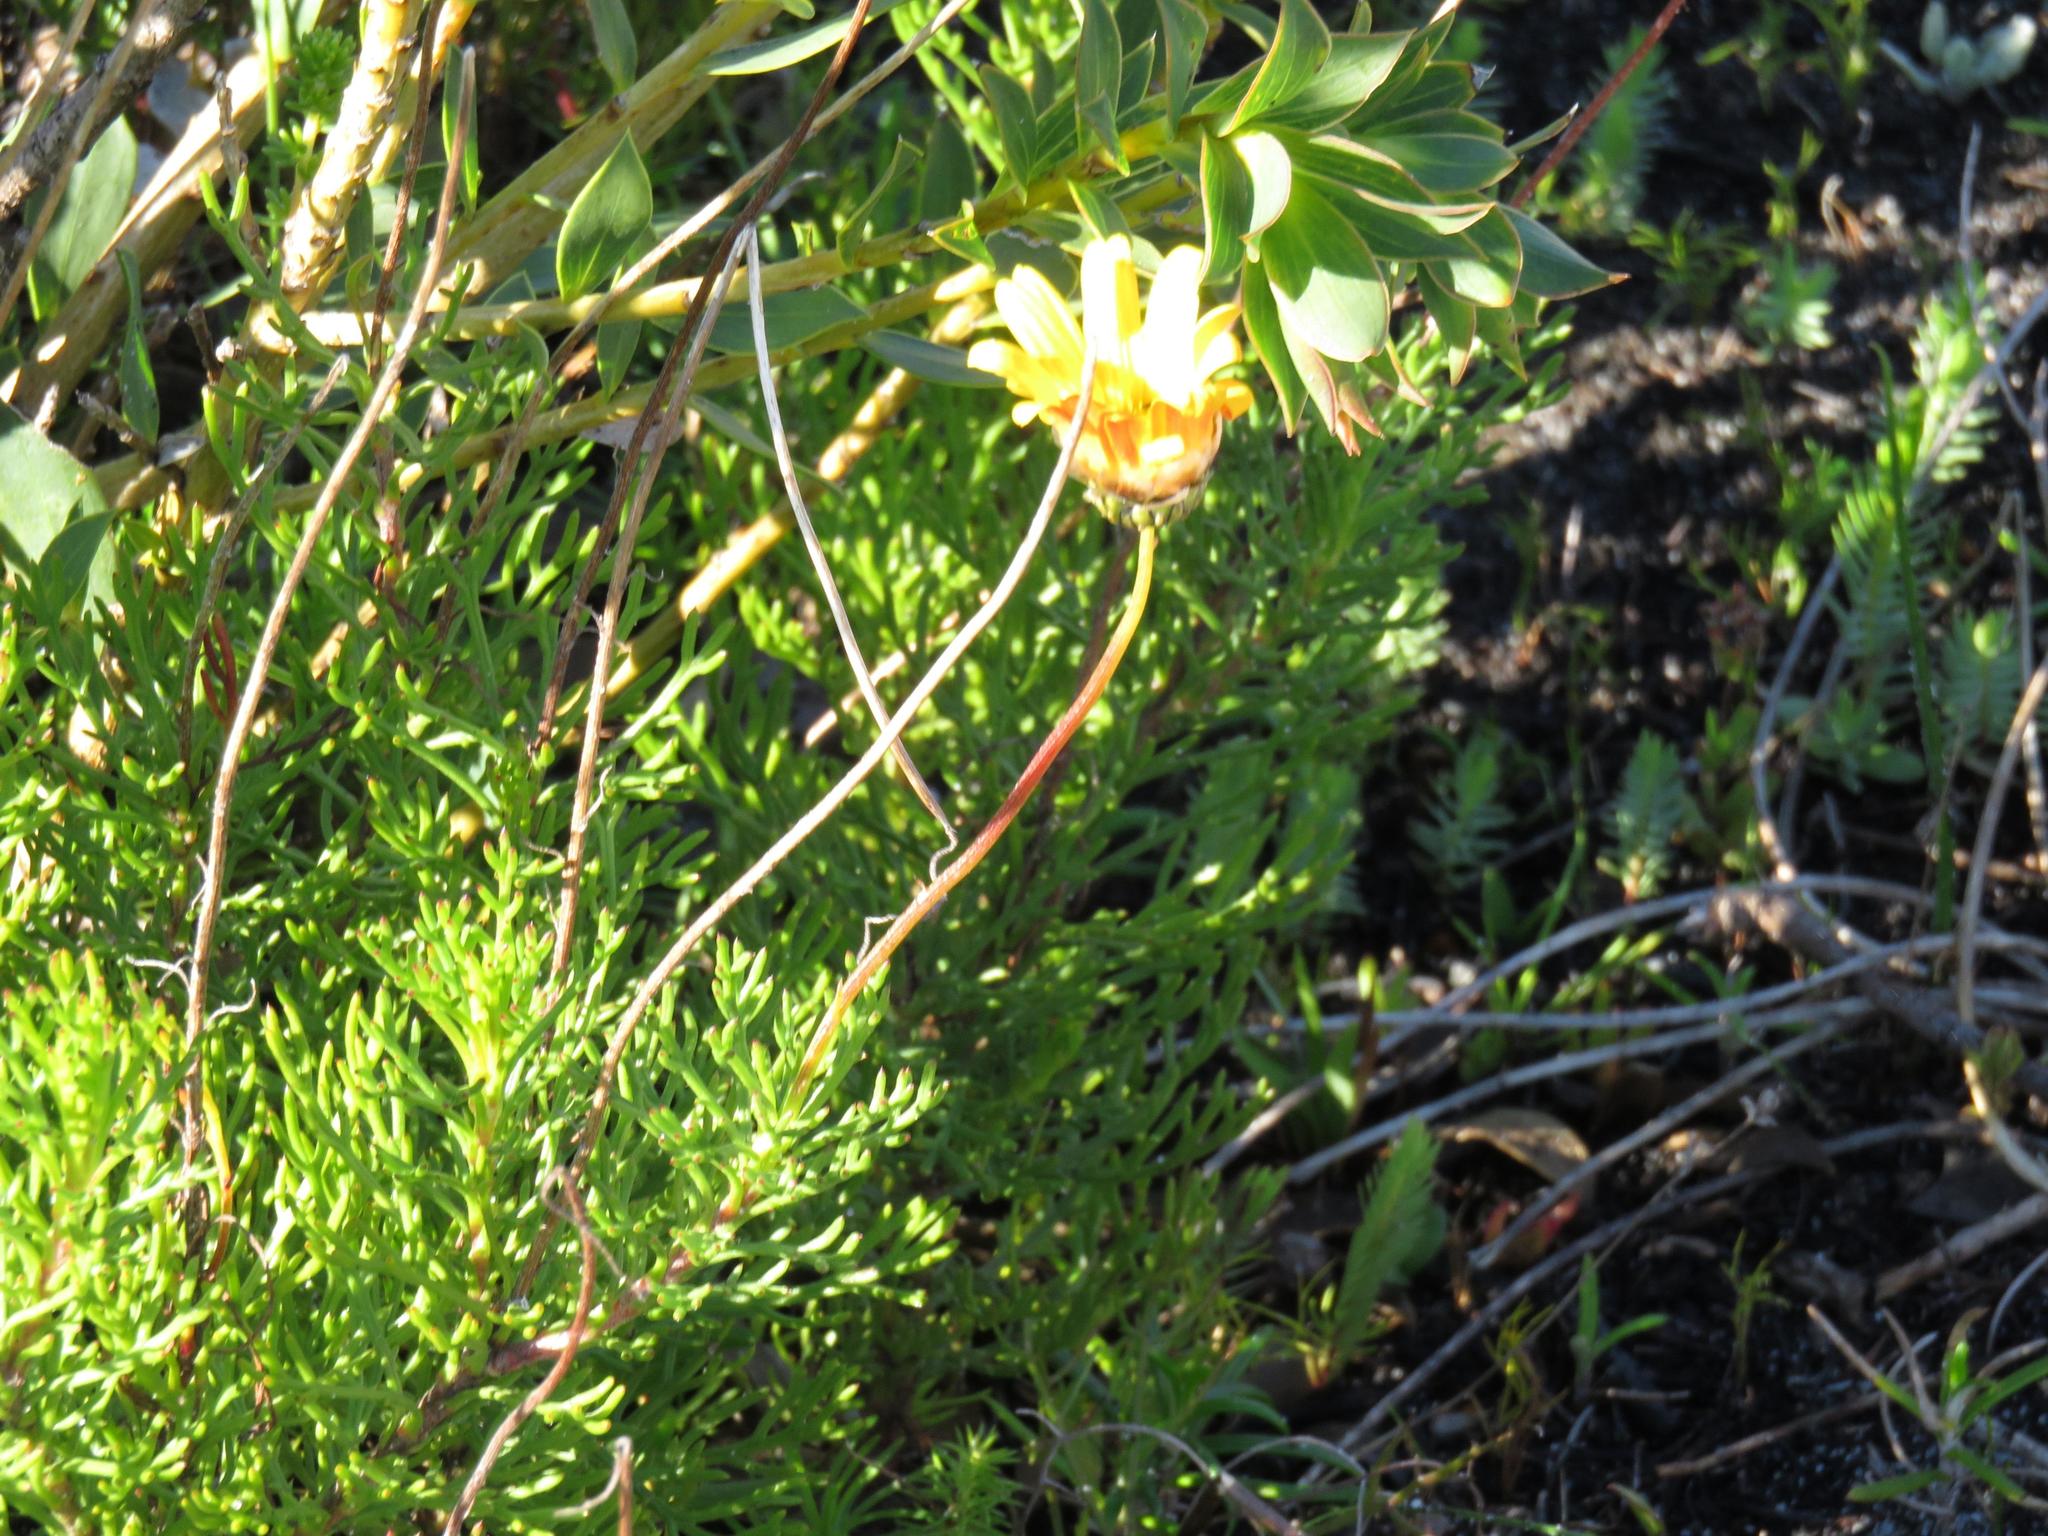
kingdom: Plantae
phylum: Tracheophyta
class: Magnoliopsida
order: Asterales
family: Asteraceae
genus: Euryops
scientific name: Euryops abrotanifolius
